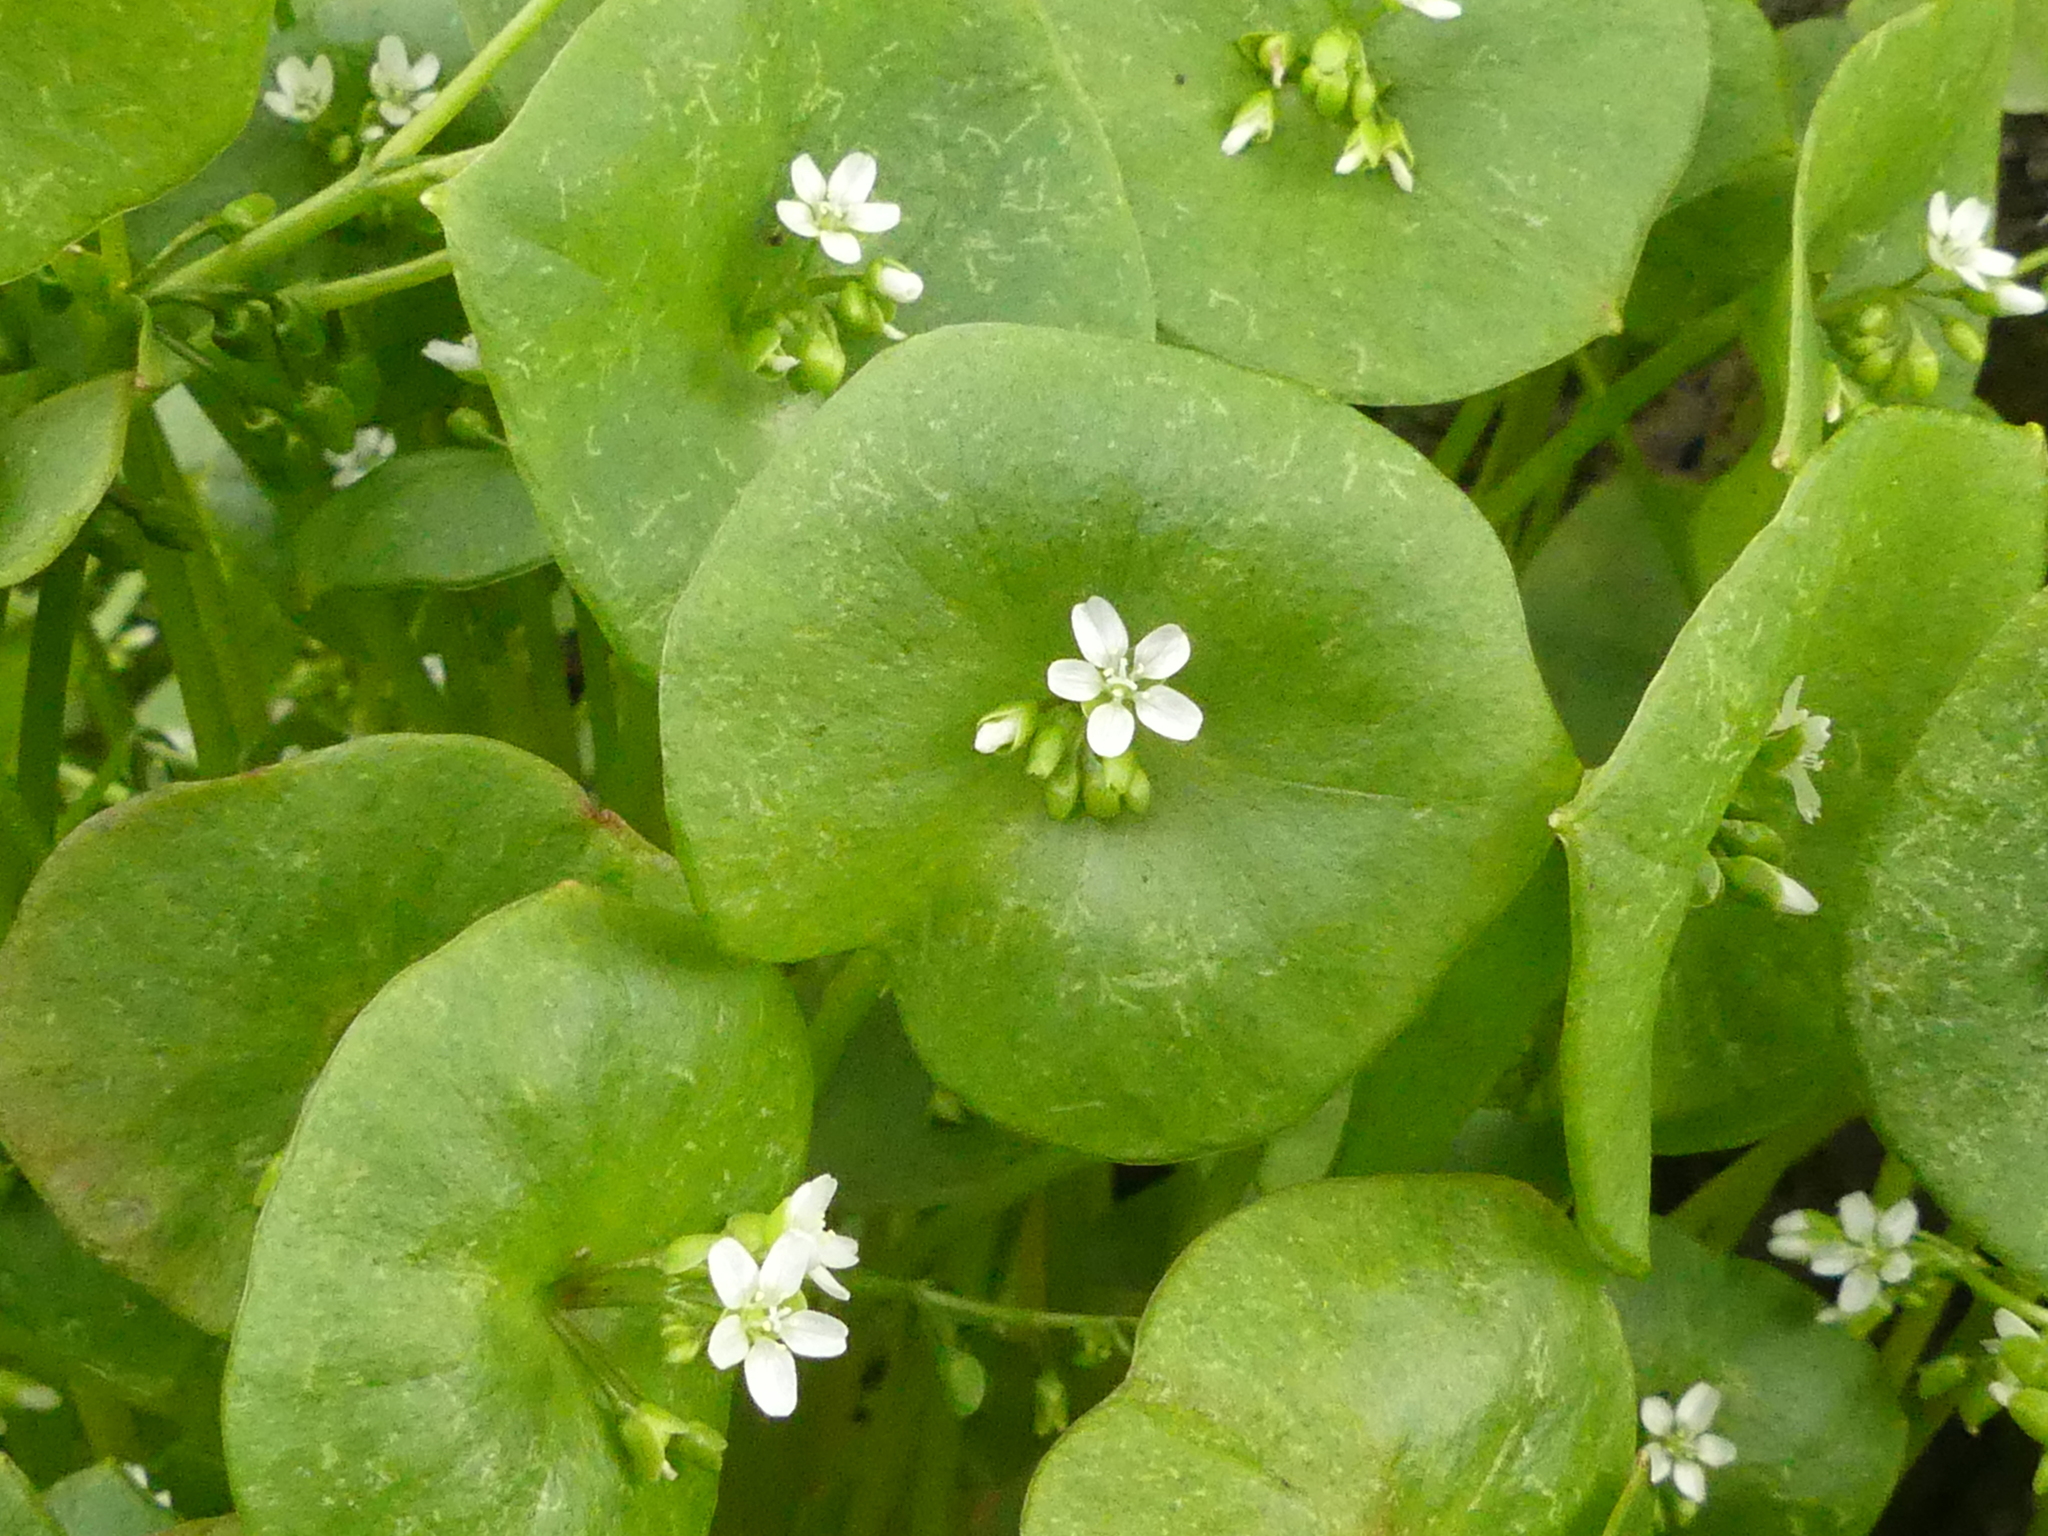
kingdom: Plantae
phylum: Tracheophyta
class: Magnoliopsida
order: Caryophyllales
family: Montiaceae
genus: Claytonia
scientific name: Claytonia perfoliata
